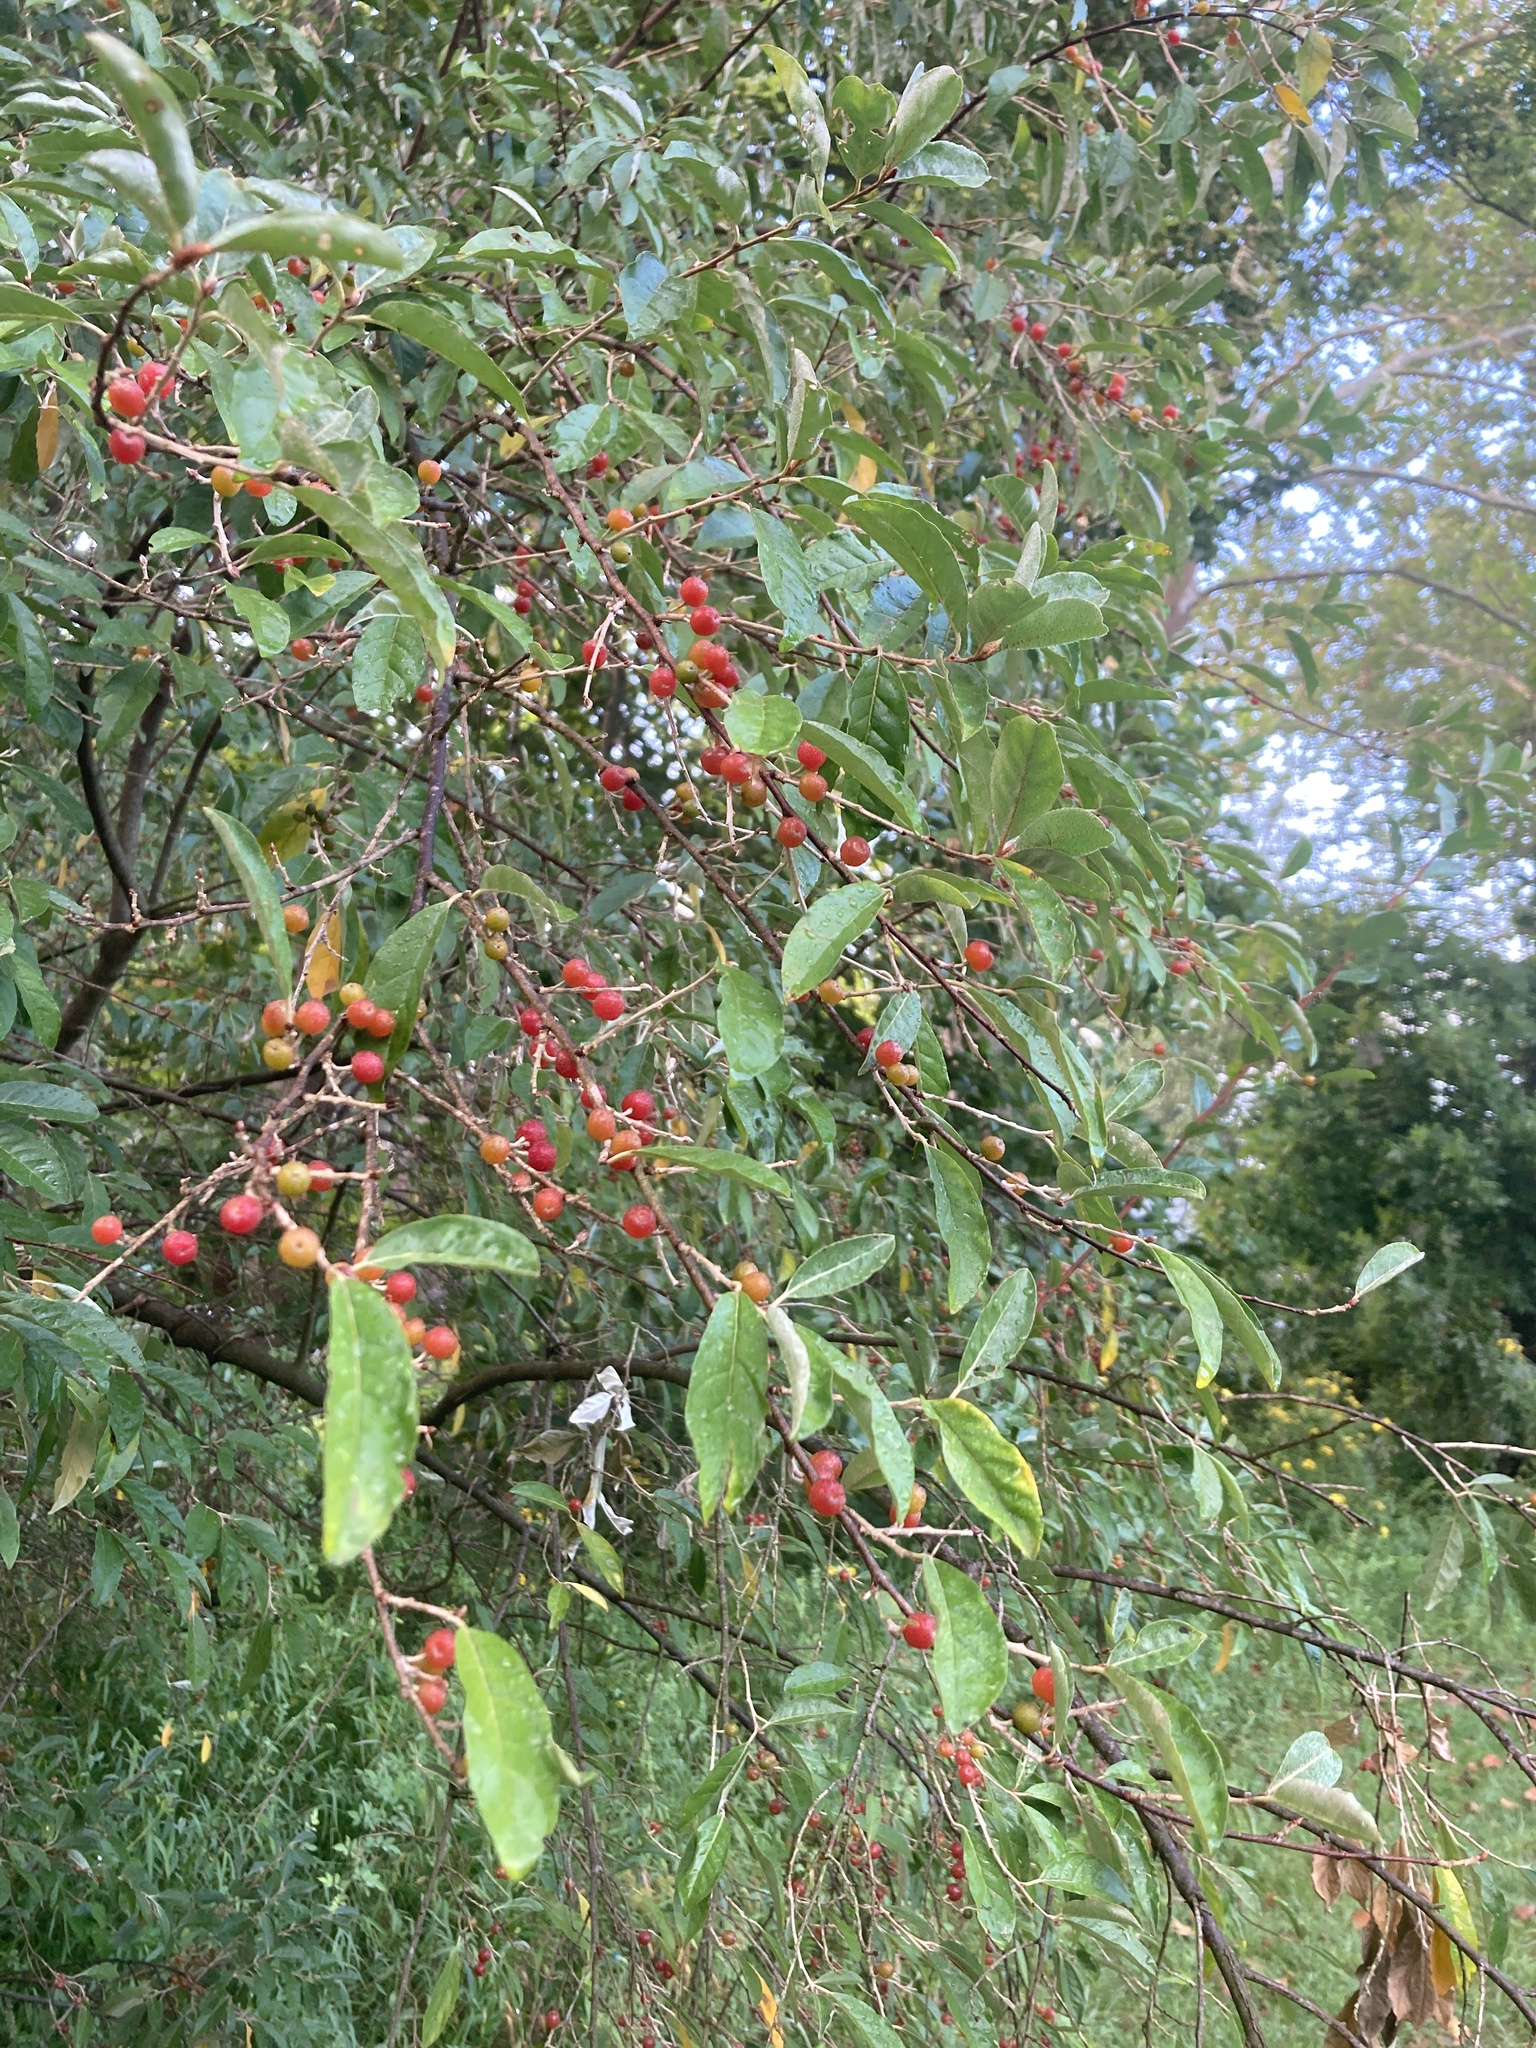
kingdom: Plantae
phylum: Tracheophyta
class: Magnoliopsida
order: Rosales
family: Elaeagnaceae
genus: Elaeagnus
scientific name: Elaeagnus umbellata
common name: Autumn olive
